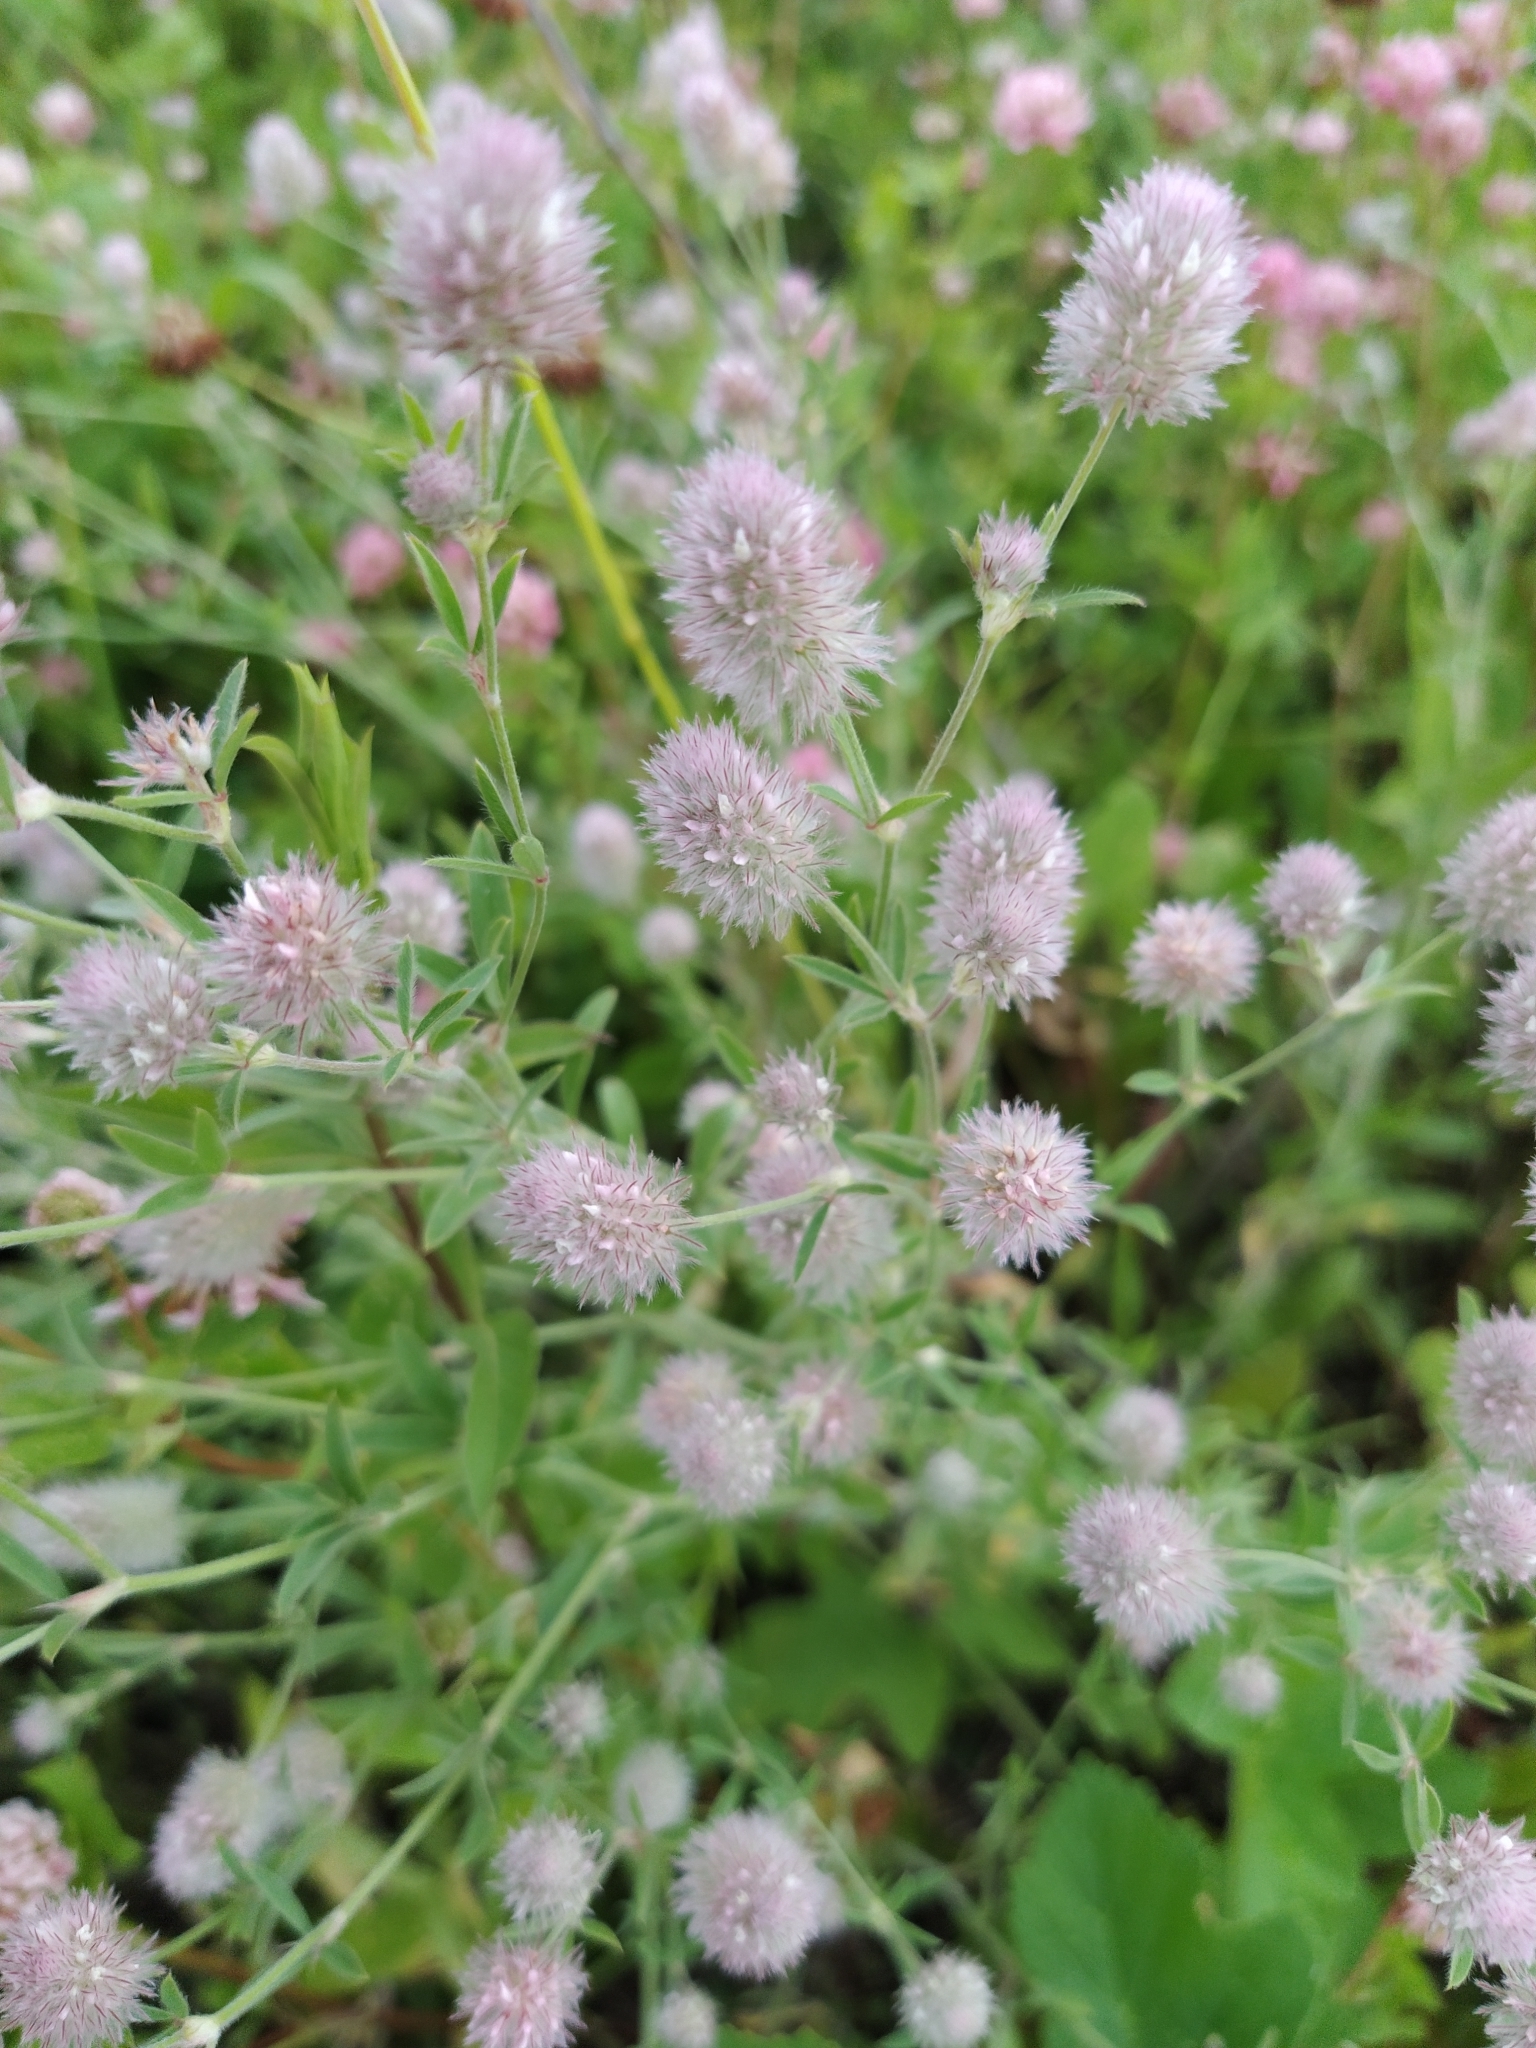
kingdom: Plantae
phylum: Tracheophyta
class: Magnoliopsida
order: Fabales
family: Fabaceae
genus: Trifolium
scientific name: Trifolium arvense
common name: Hare's-foot clover
